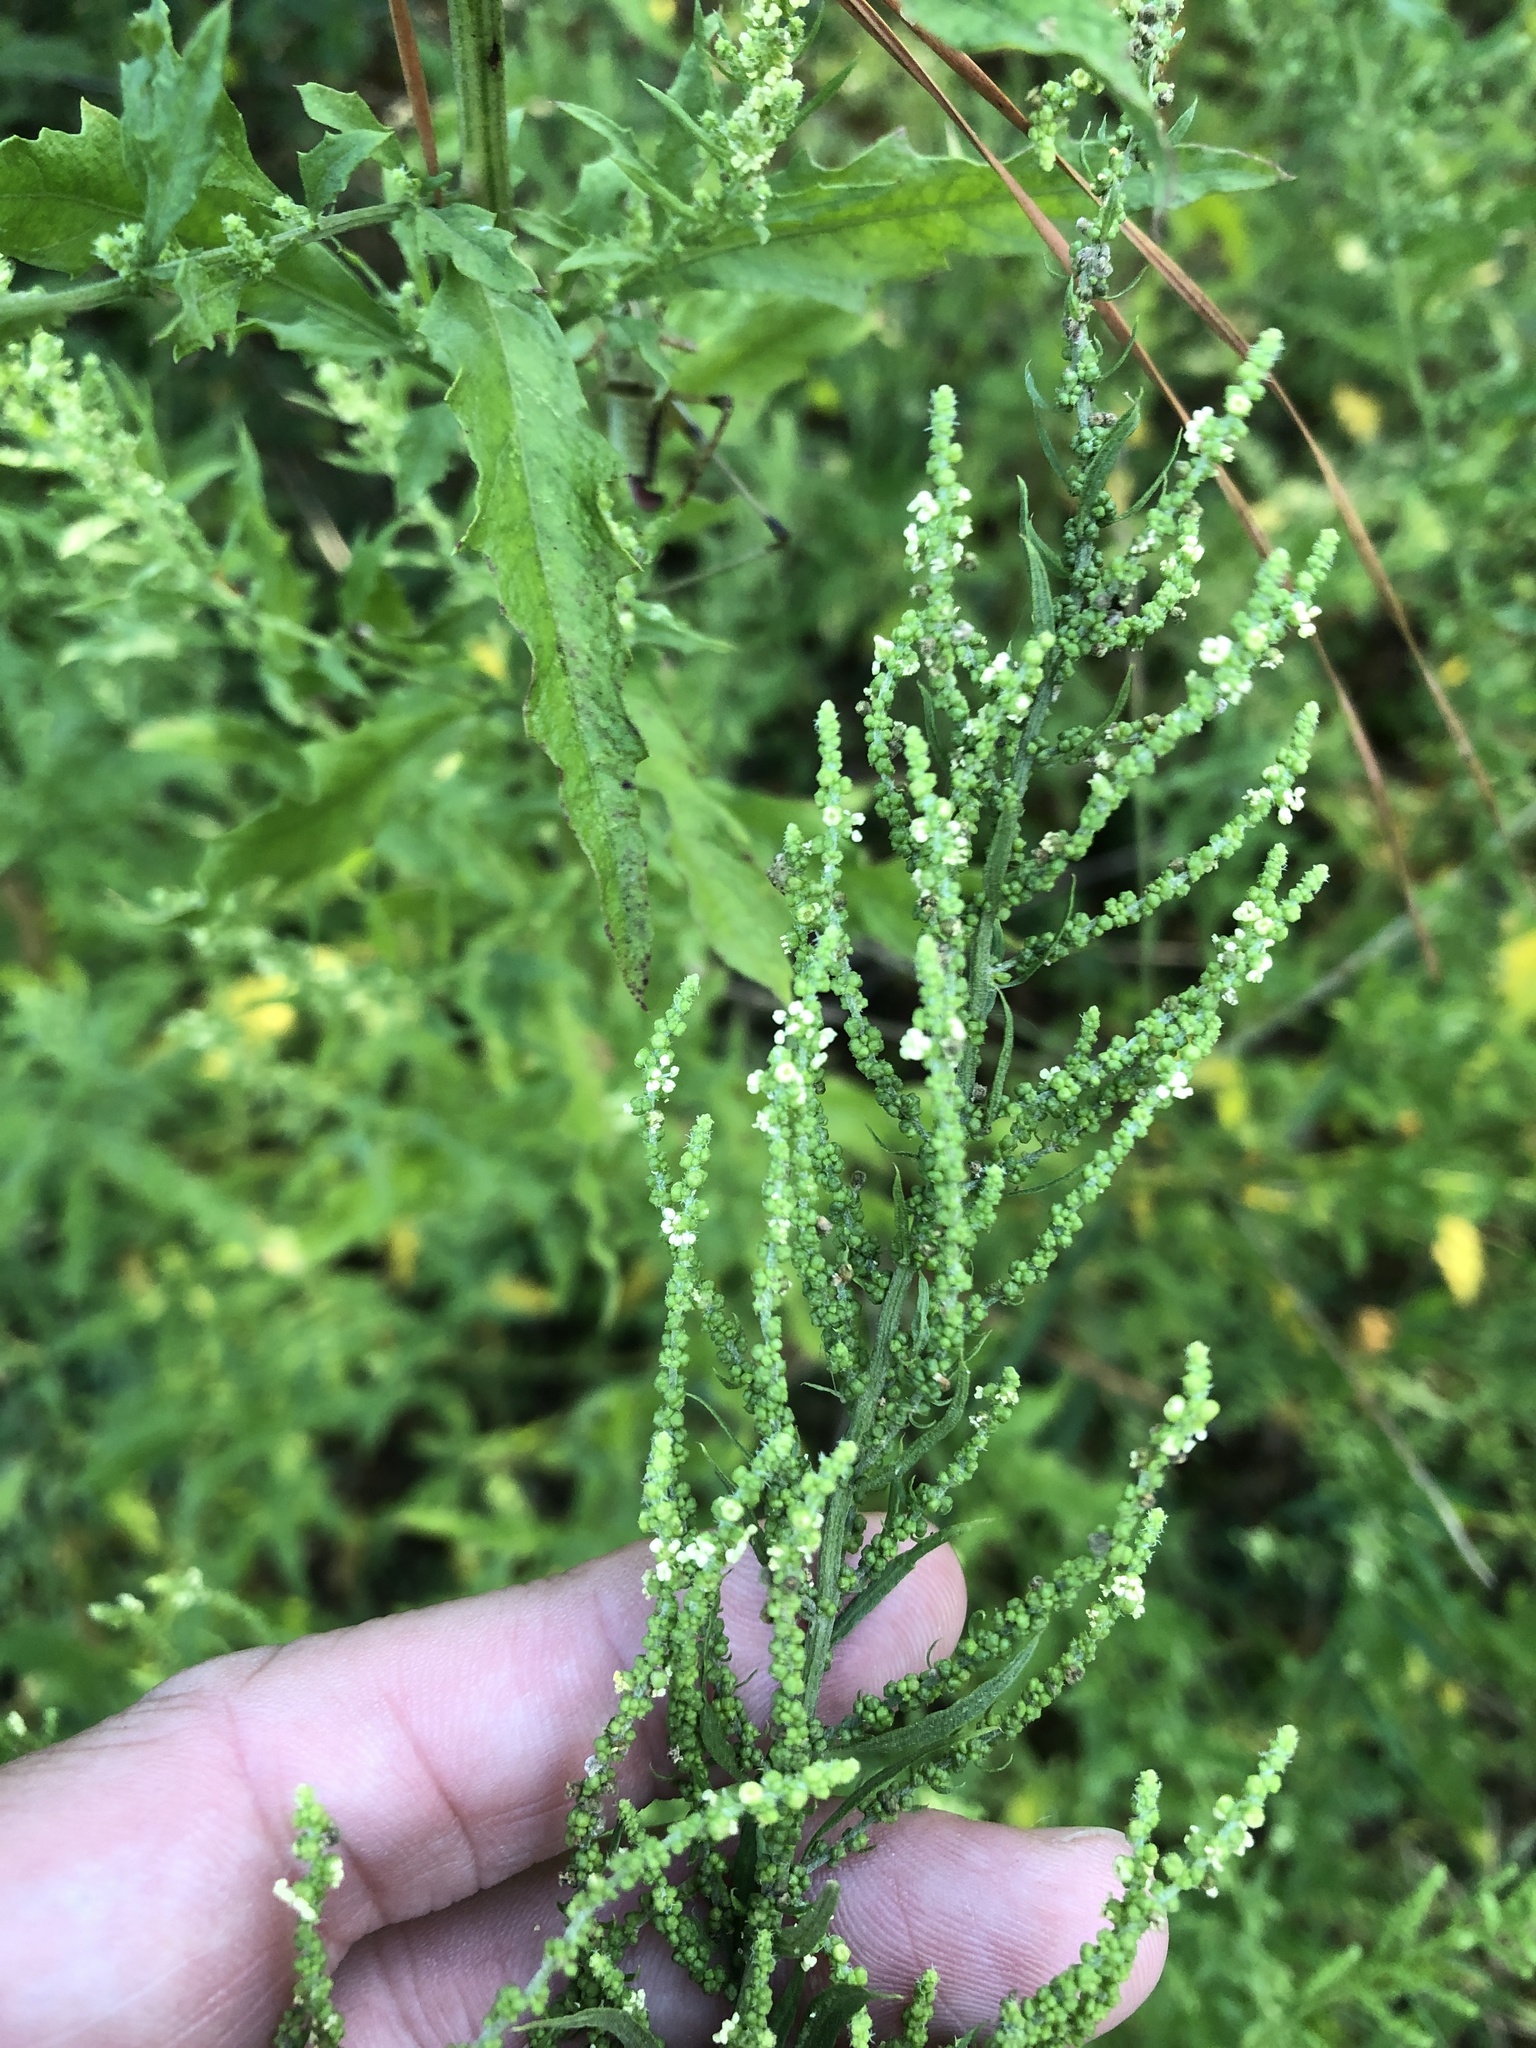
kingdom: Plantae
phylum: Tracheophyta
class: Magnoliopsida
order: Caryophyllales
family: Amaranthaceae
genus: Dysphania
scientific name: Dysphania ambrosioides
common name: Wormseed
